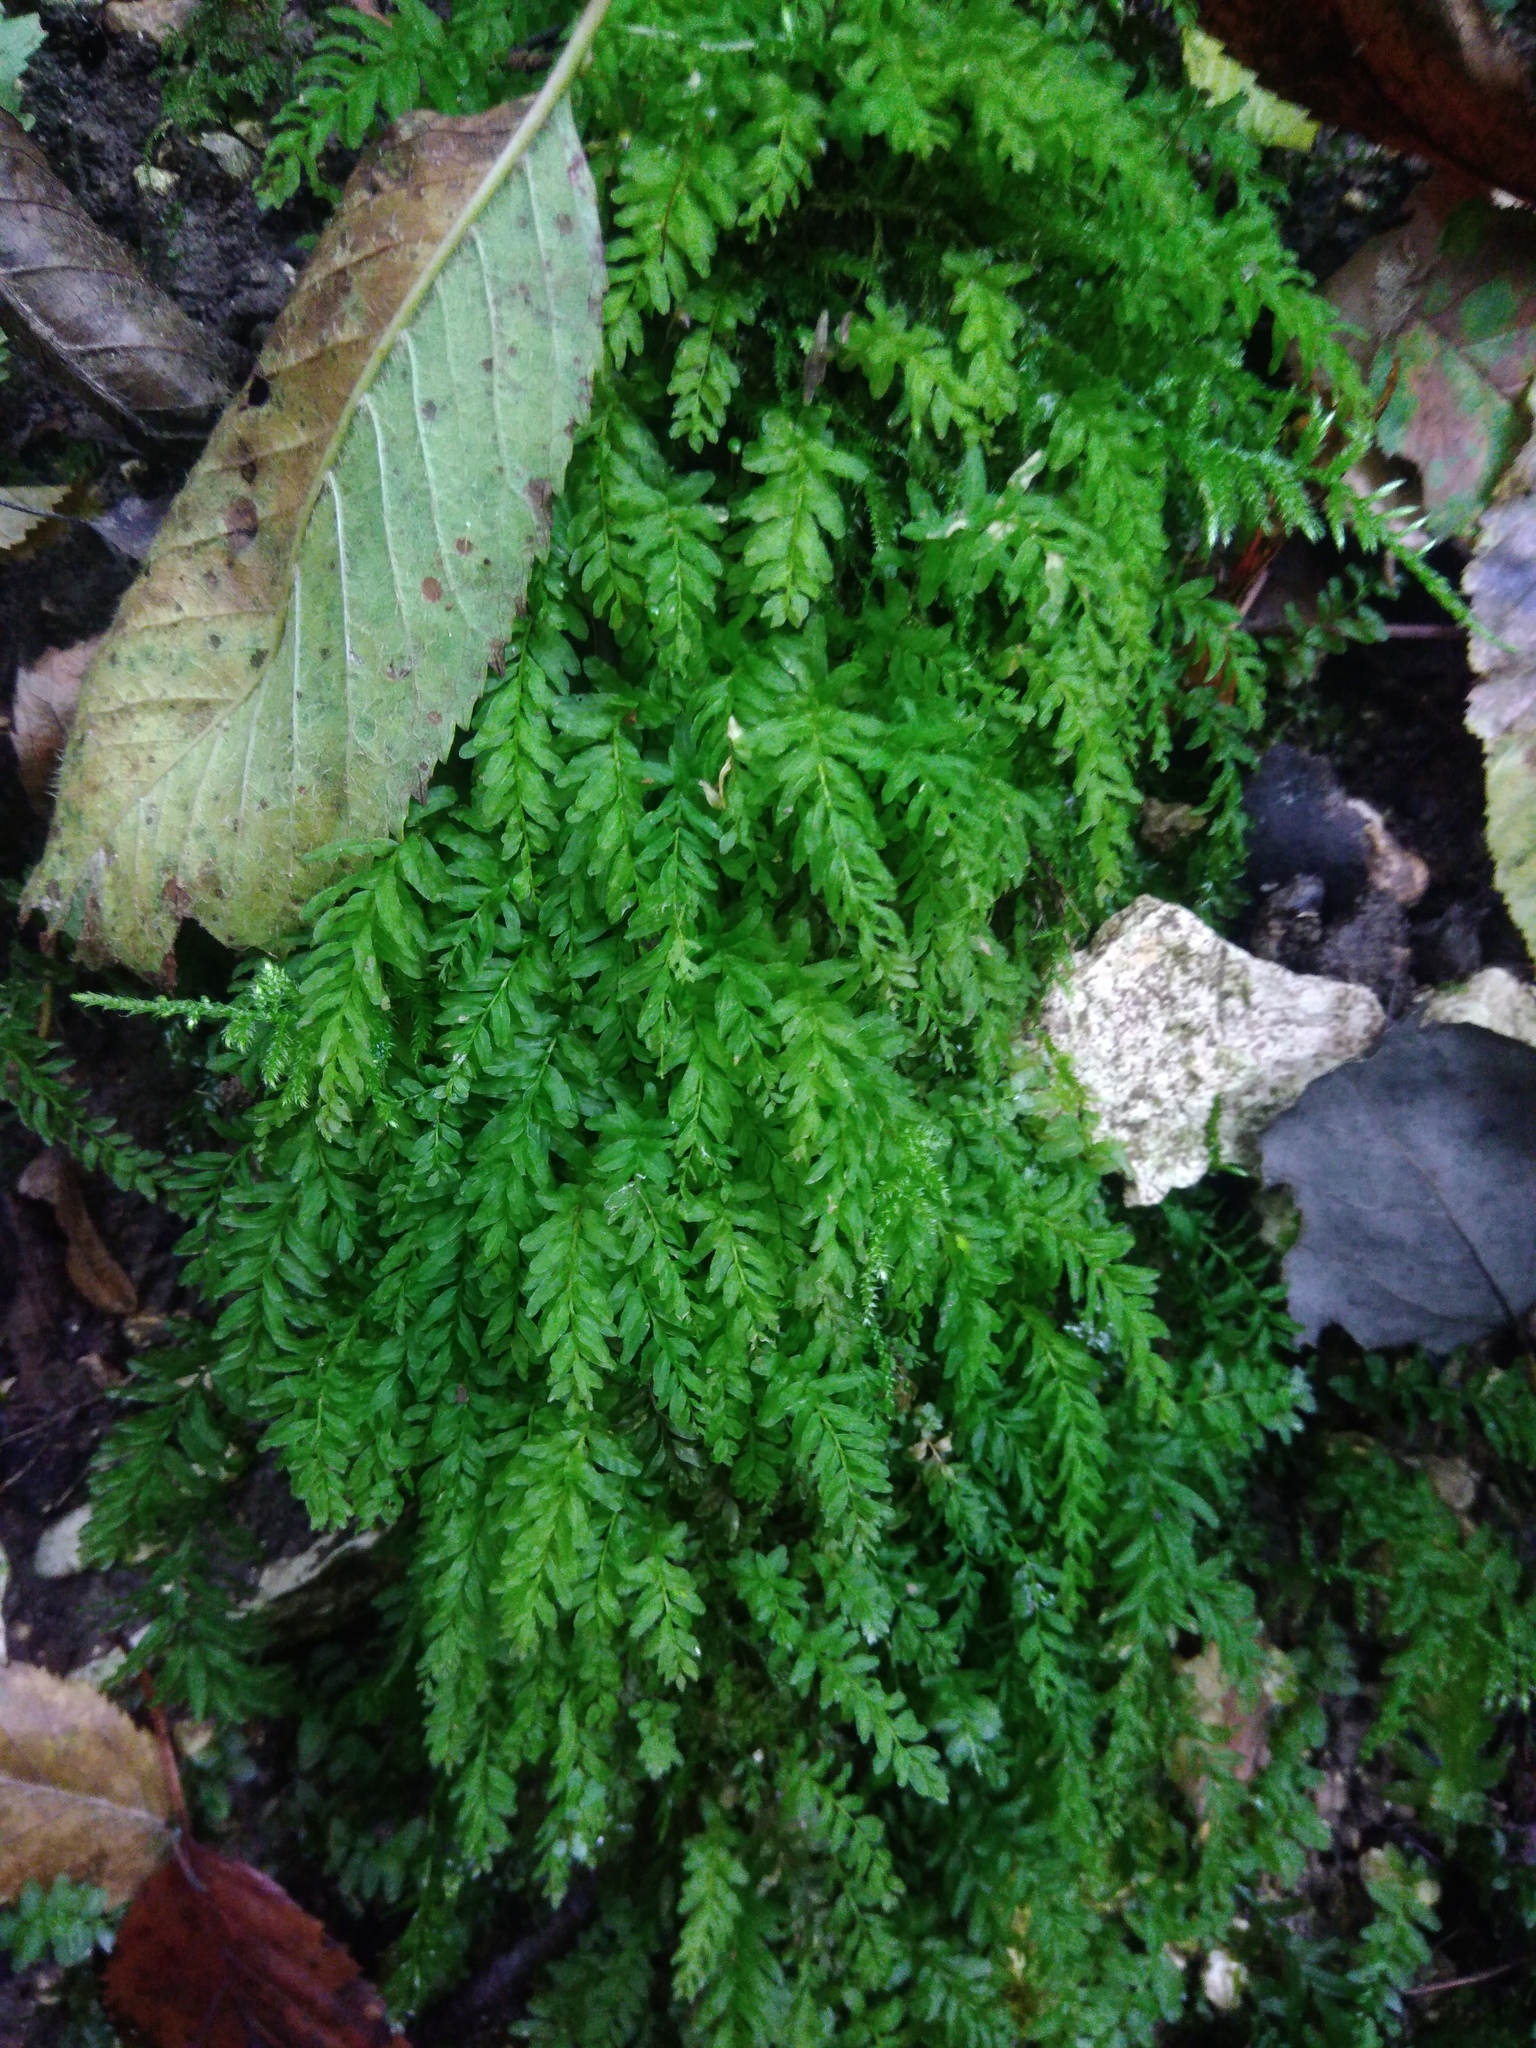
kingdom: Plantae
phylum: Bryophyta
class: Bryopsida
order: Bryales
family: Mniaceae
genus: Plagiomnium
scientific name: Plagiomnium undulatum
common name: Hart's-tongue thyme-moss
